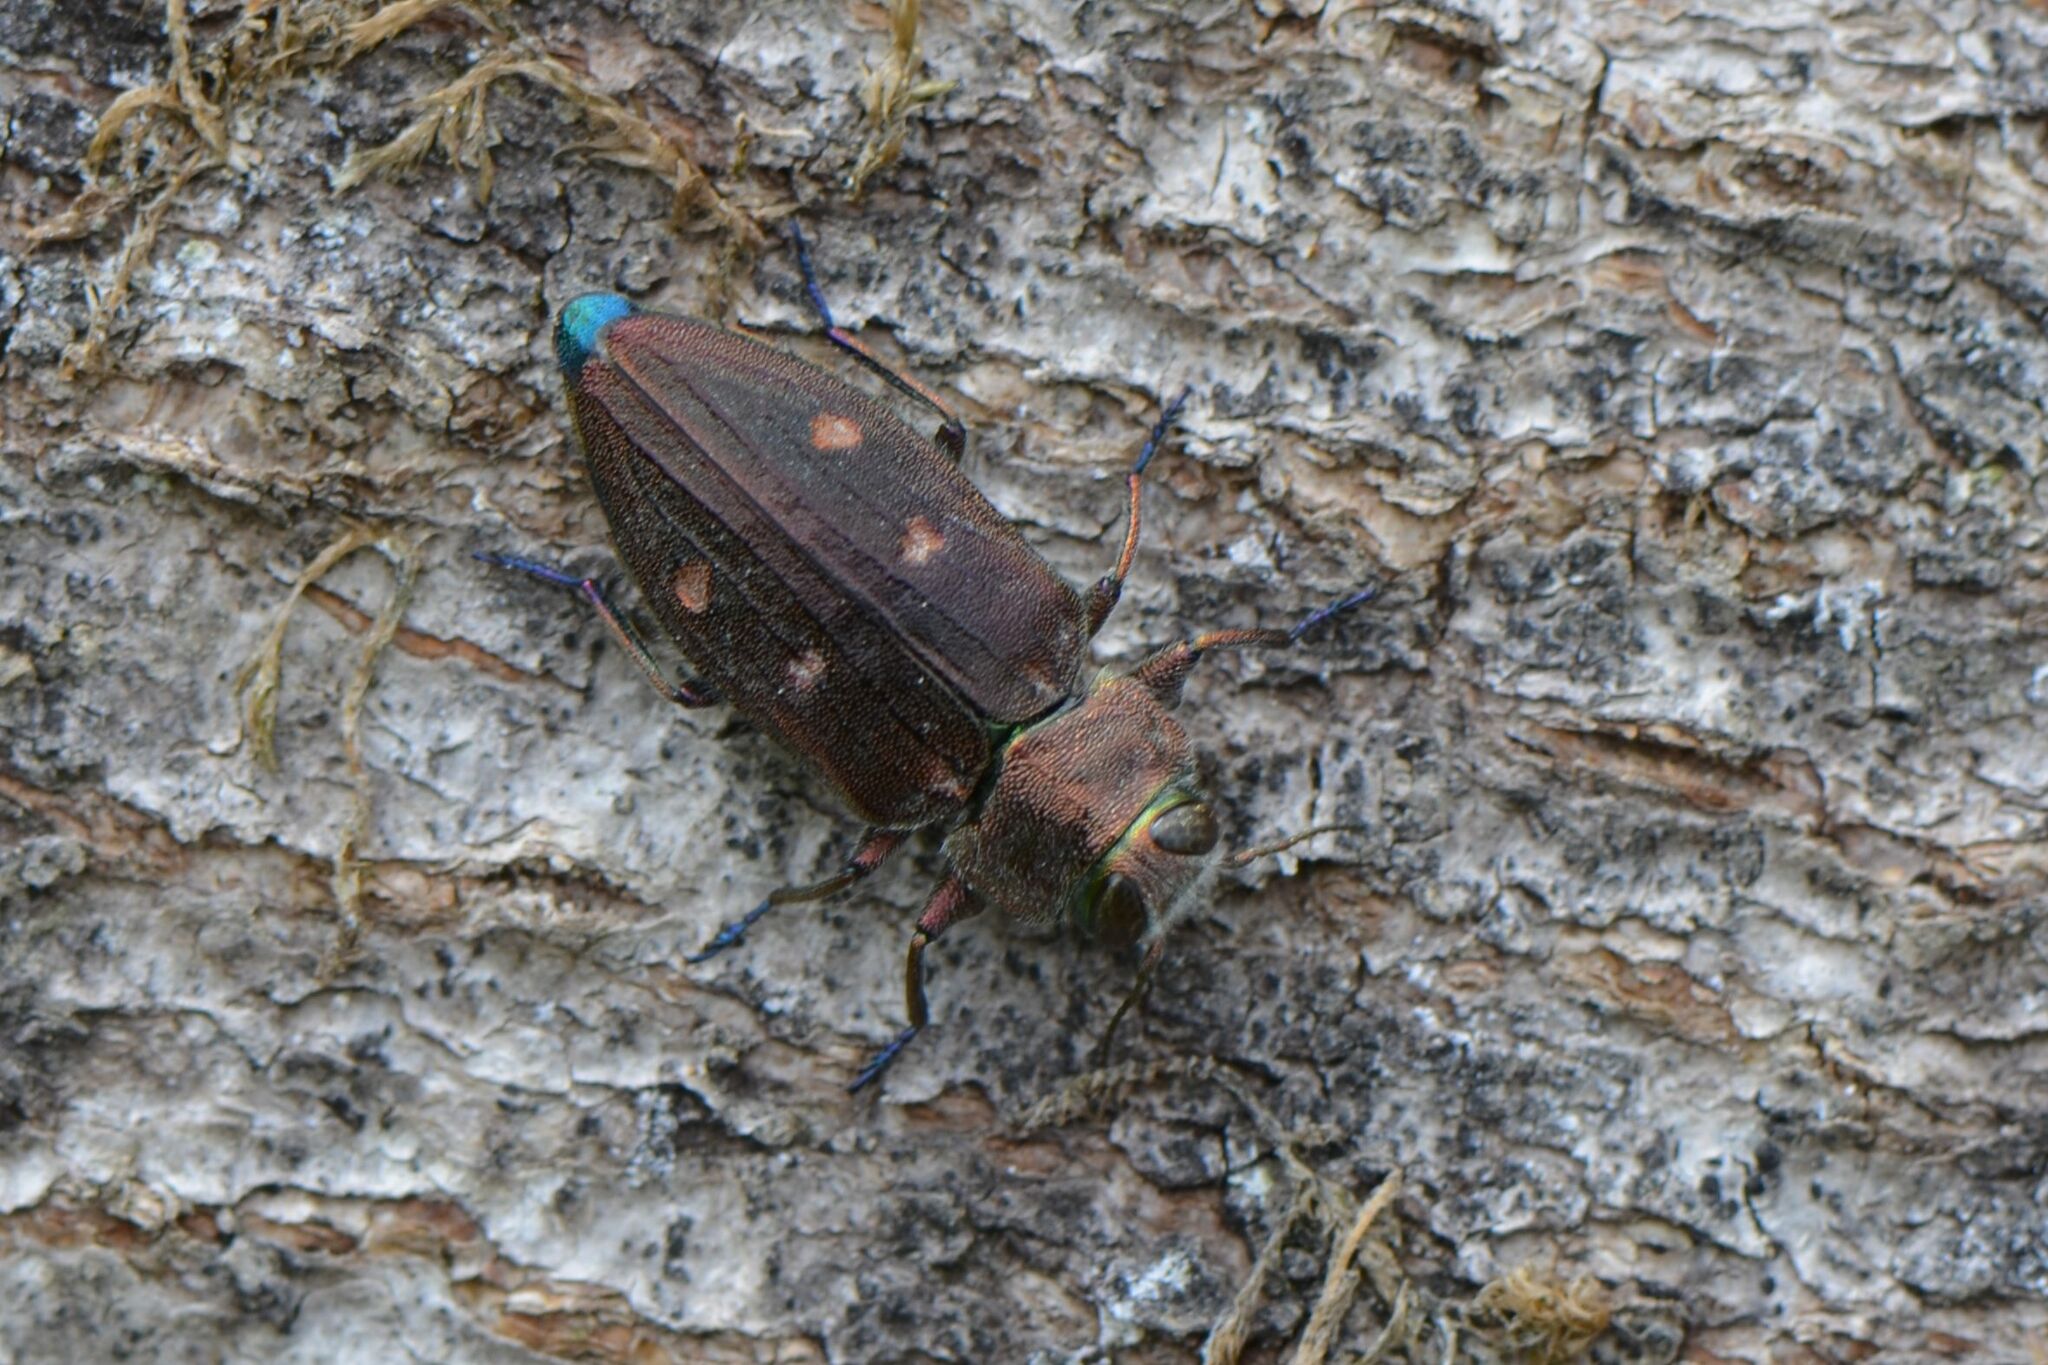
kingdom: Animalia
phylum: Arthropoda
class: Insecta
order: Coleoptera
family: Buprestidae
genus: Chrysobothris
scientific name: Chrysobothris affinis
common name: Beetle
